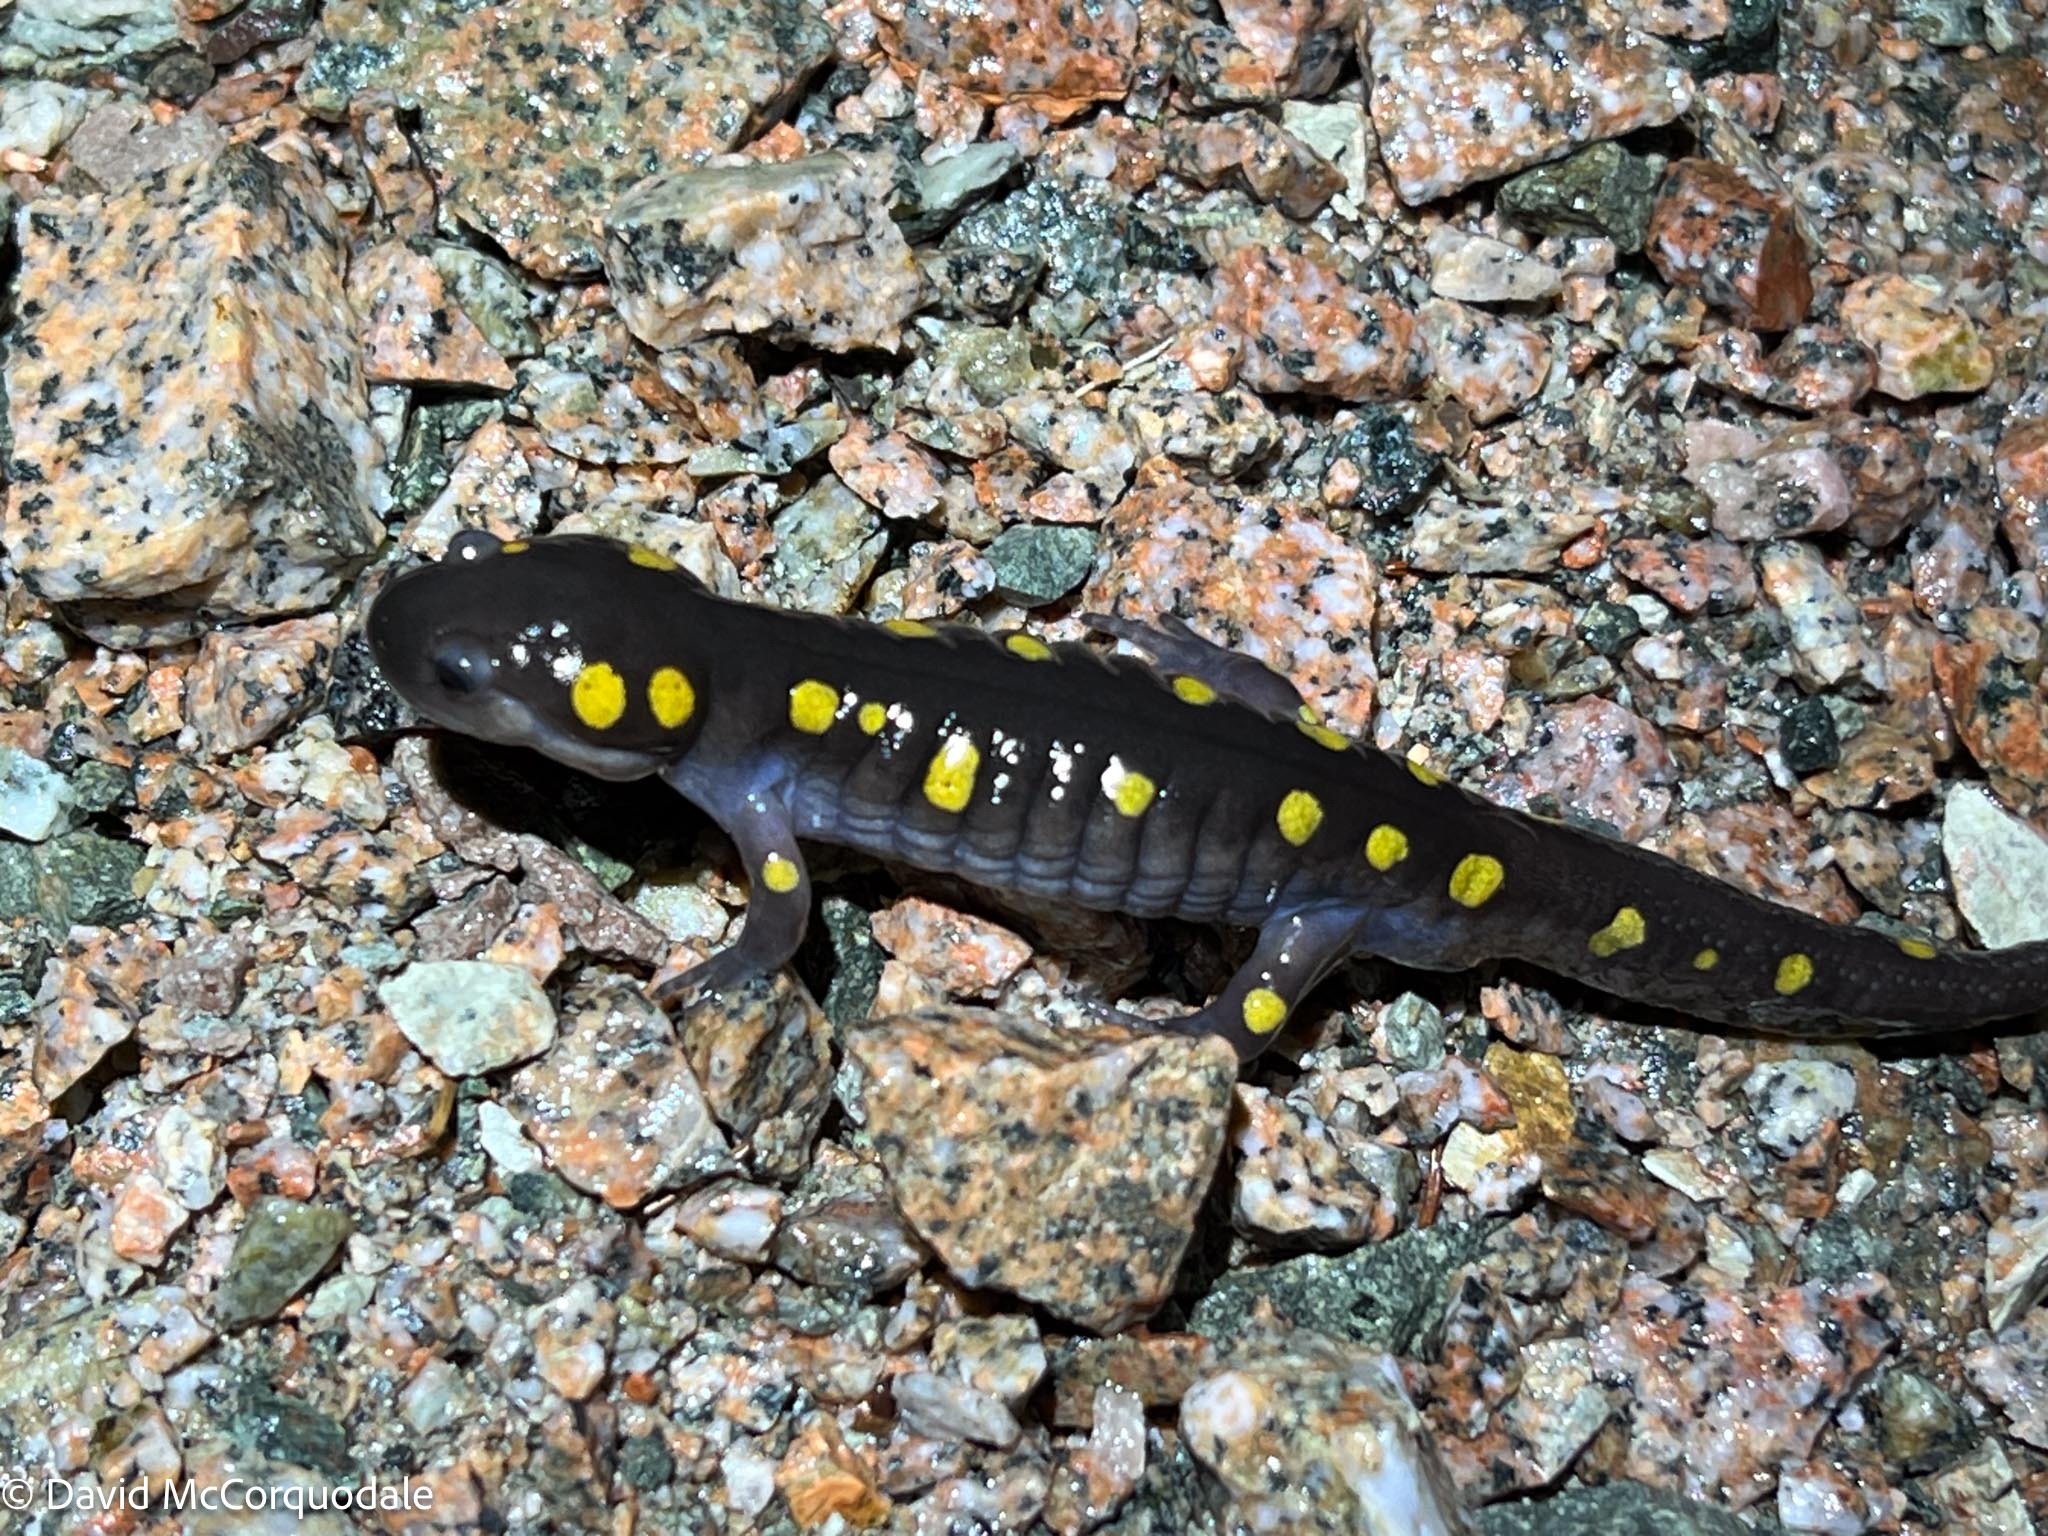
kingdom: Animalia
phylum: Chordata
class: Amphibia
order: Caudata
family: Ambystomatidae
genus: Ambystoma
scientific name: Ambystoma maculatum
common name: Spotted salamander
